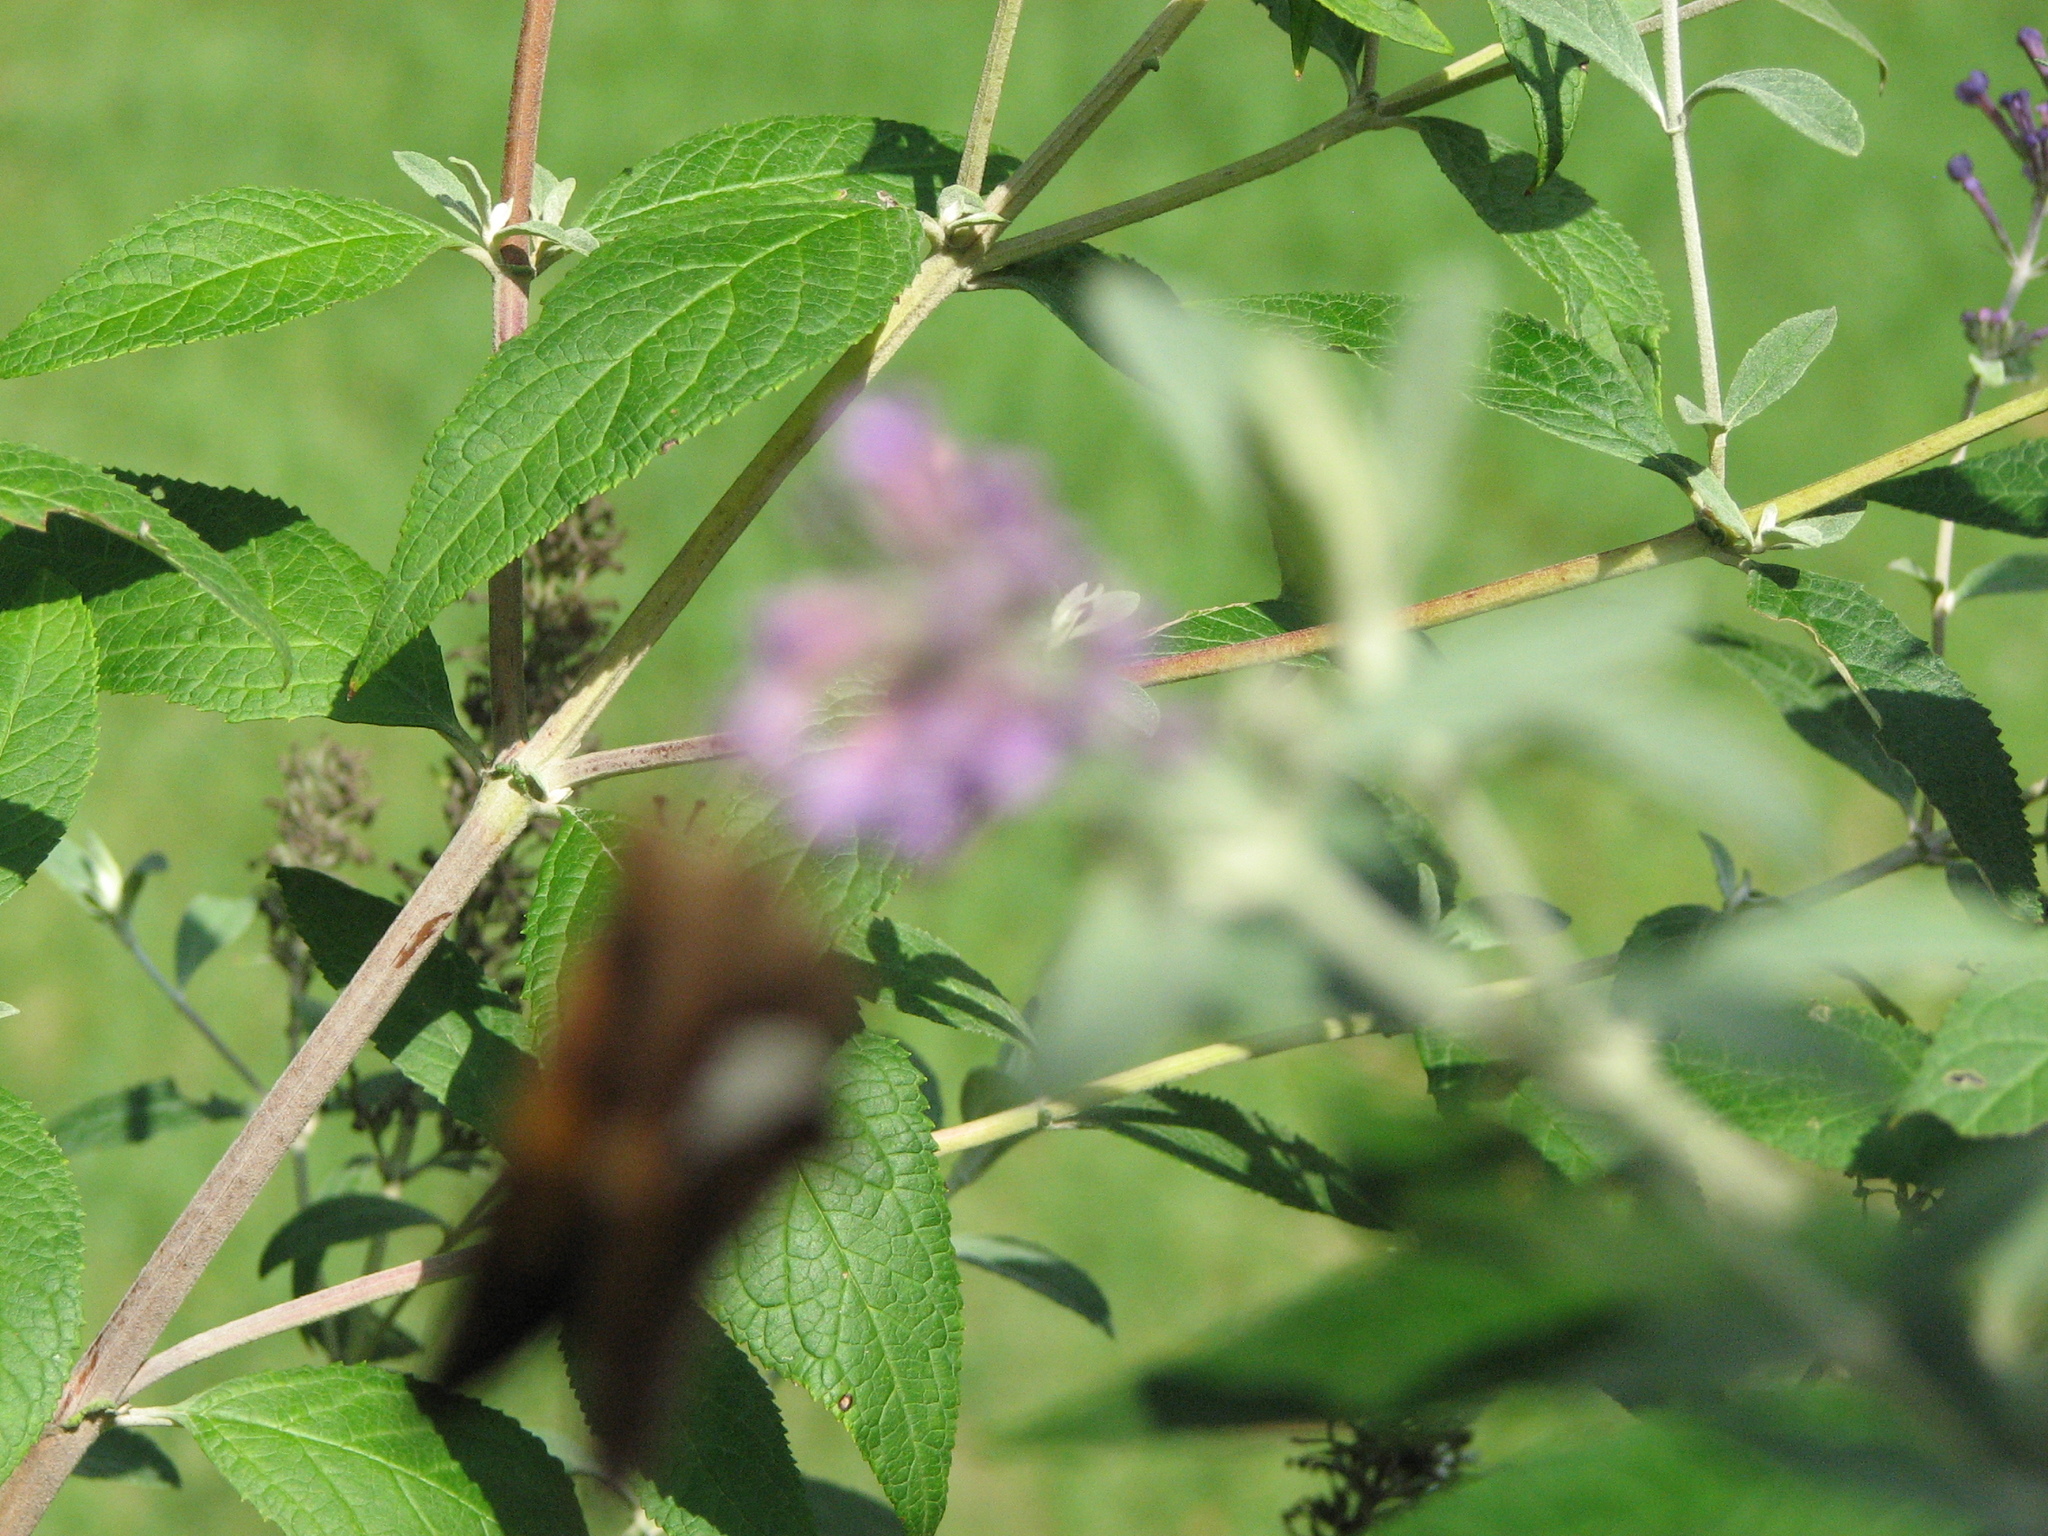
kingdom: Animalia
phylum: Arthropoda
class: Insecta
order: Lepidoptera
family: Hesperiidae
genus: Epargyreus
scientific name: Epargyreus clarus
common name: Silver-spotted skipper
